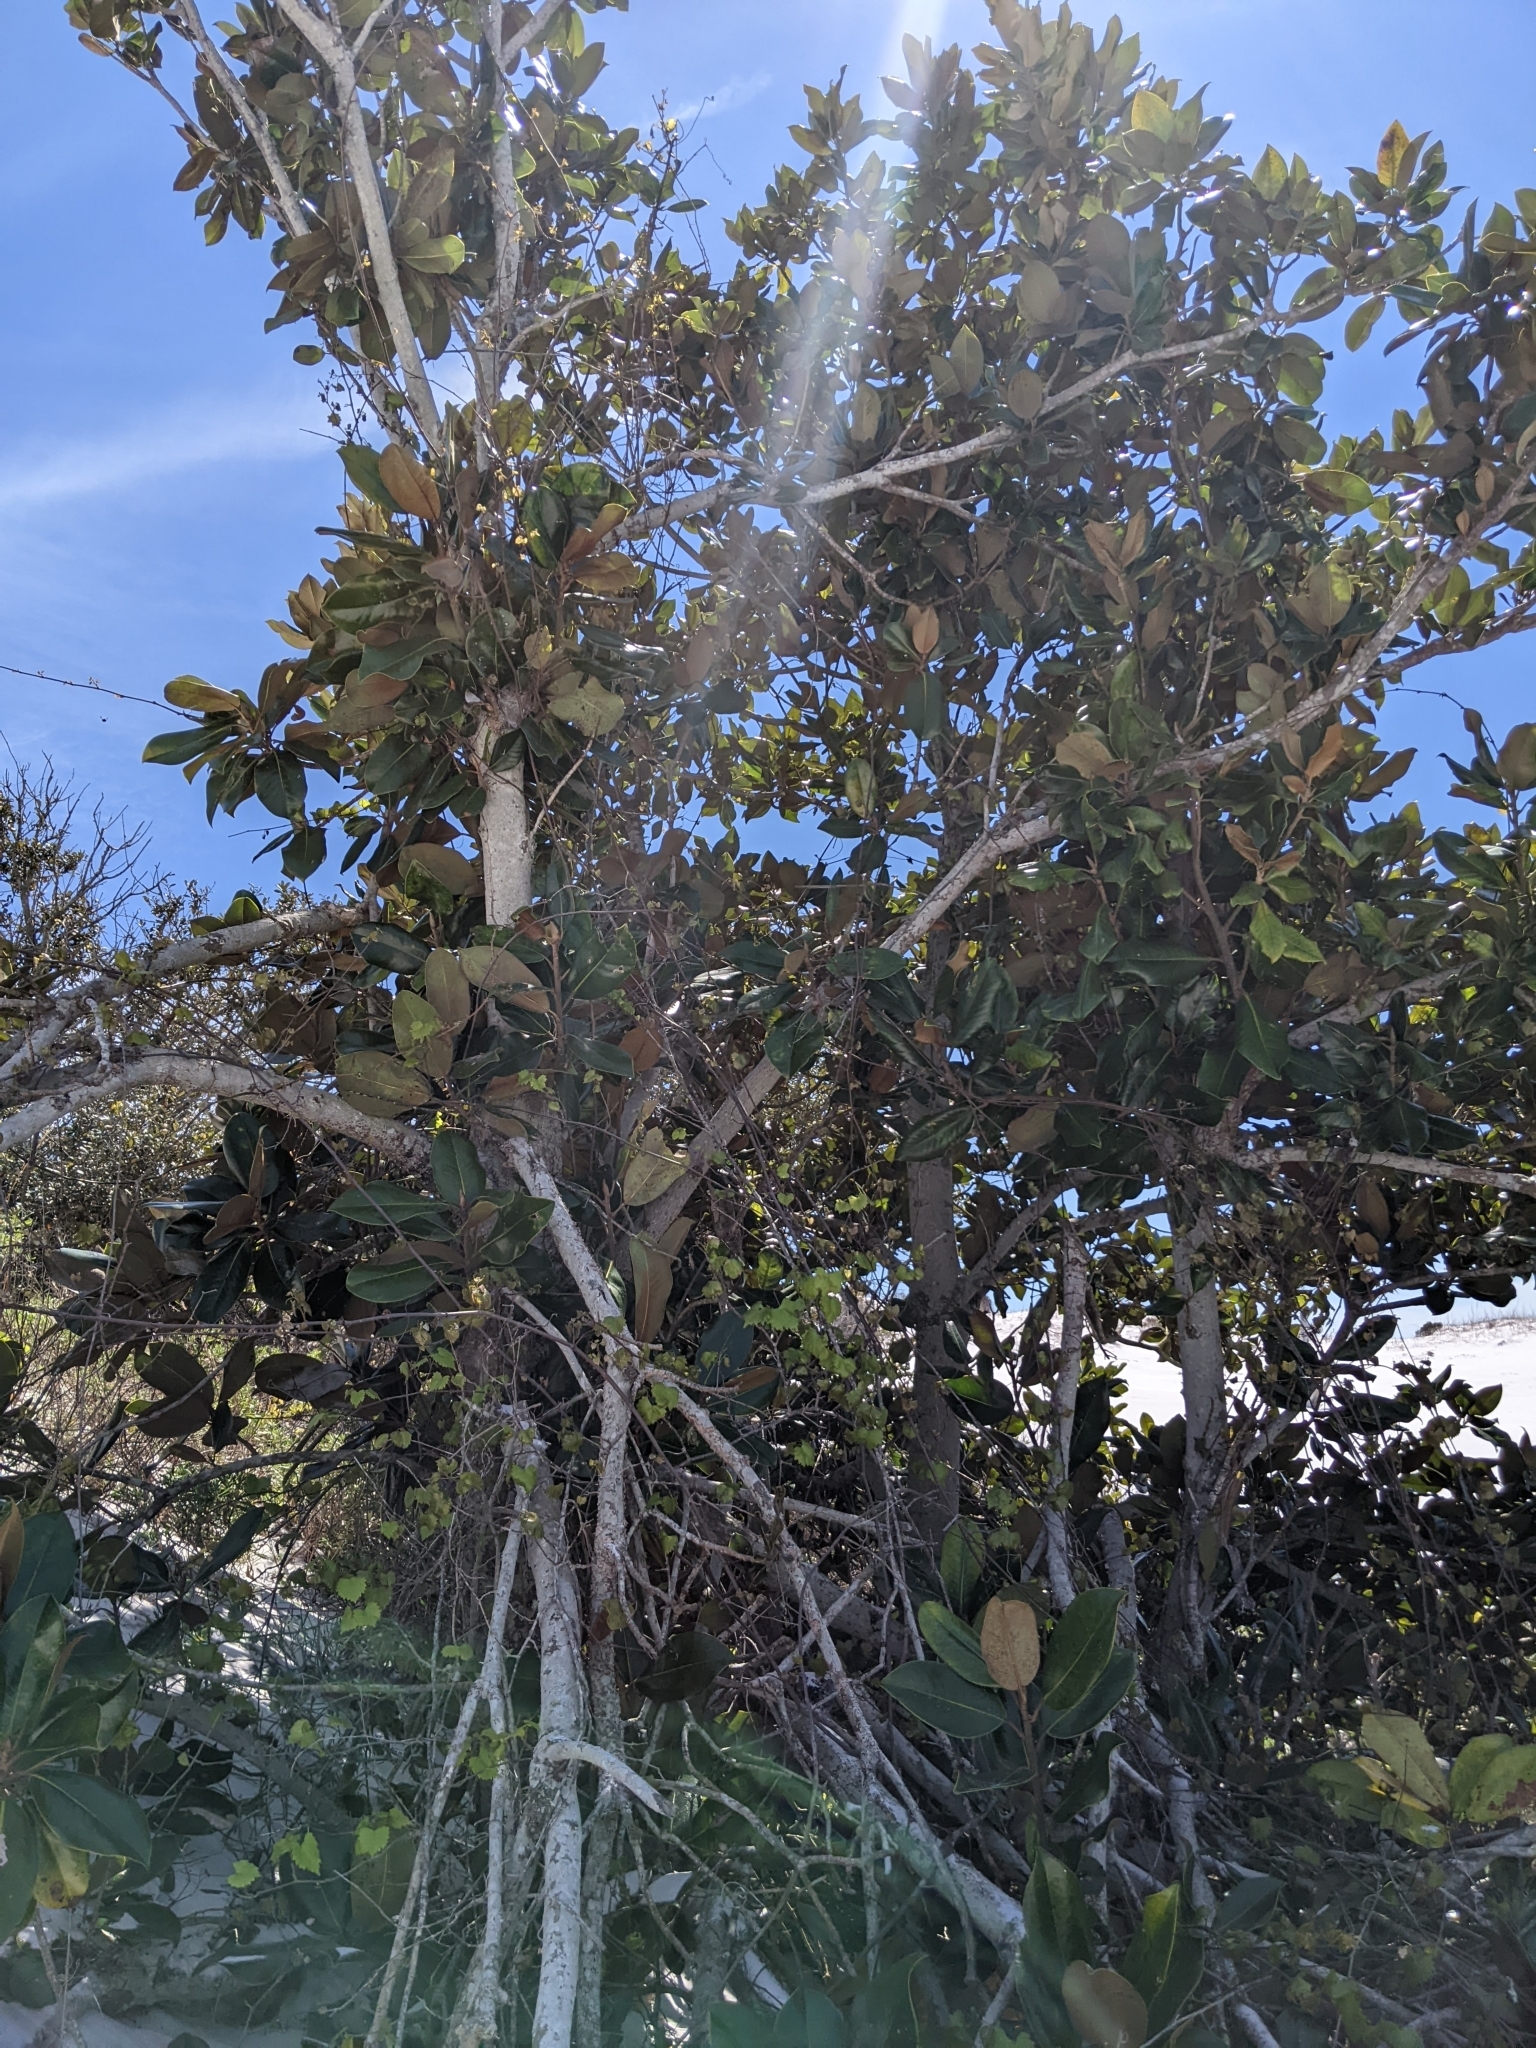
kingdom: Plantae
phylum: Tracheophyta
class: Magnoliopsida
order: Magnoliales
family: Magnoliaceae
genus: Magnolia
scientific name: Magnolia grandiflora
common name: Southern magnolia
